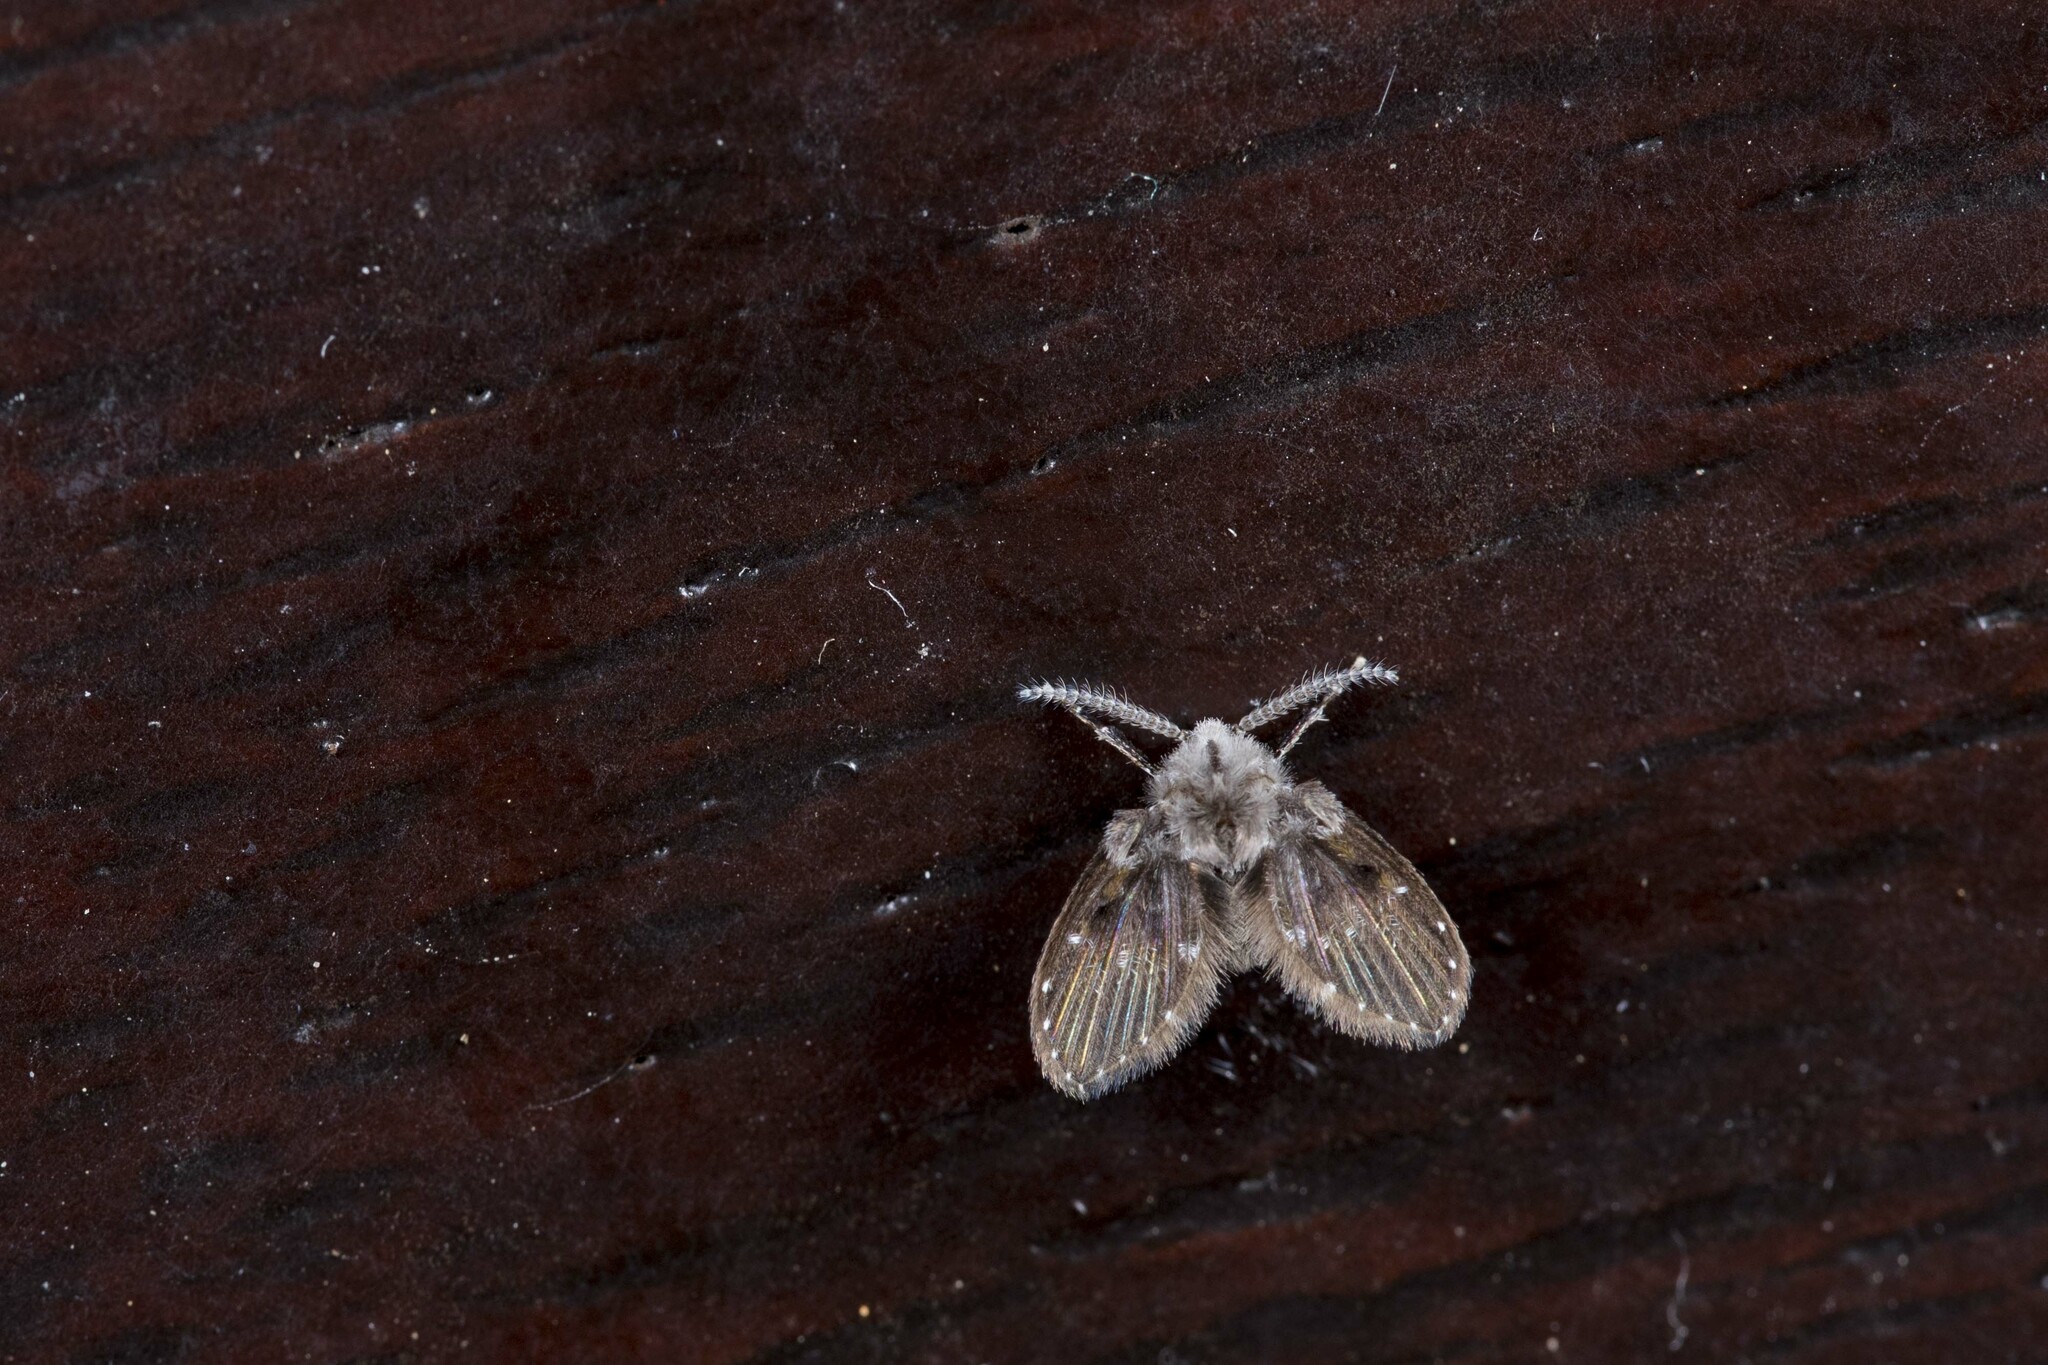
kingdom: Animalia
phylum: Arthropoda
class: Insecta
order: Diptera
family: Psychodidae
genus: Clogmia
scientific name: Clogmia albipunctatus
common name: White-spotted moth fly
